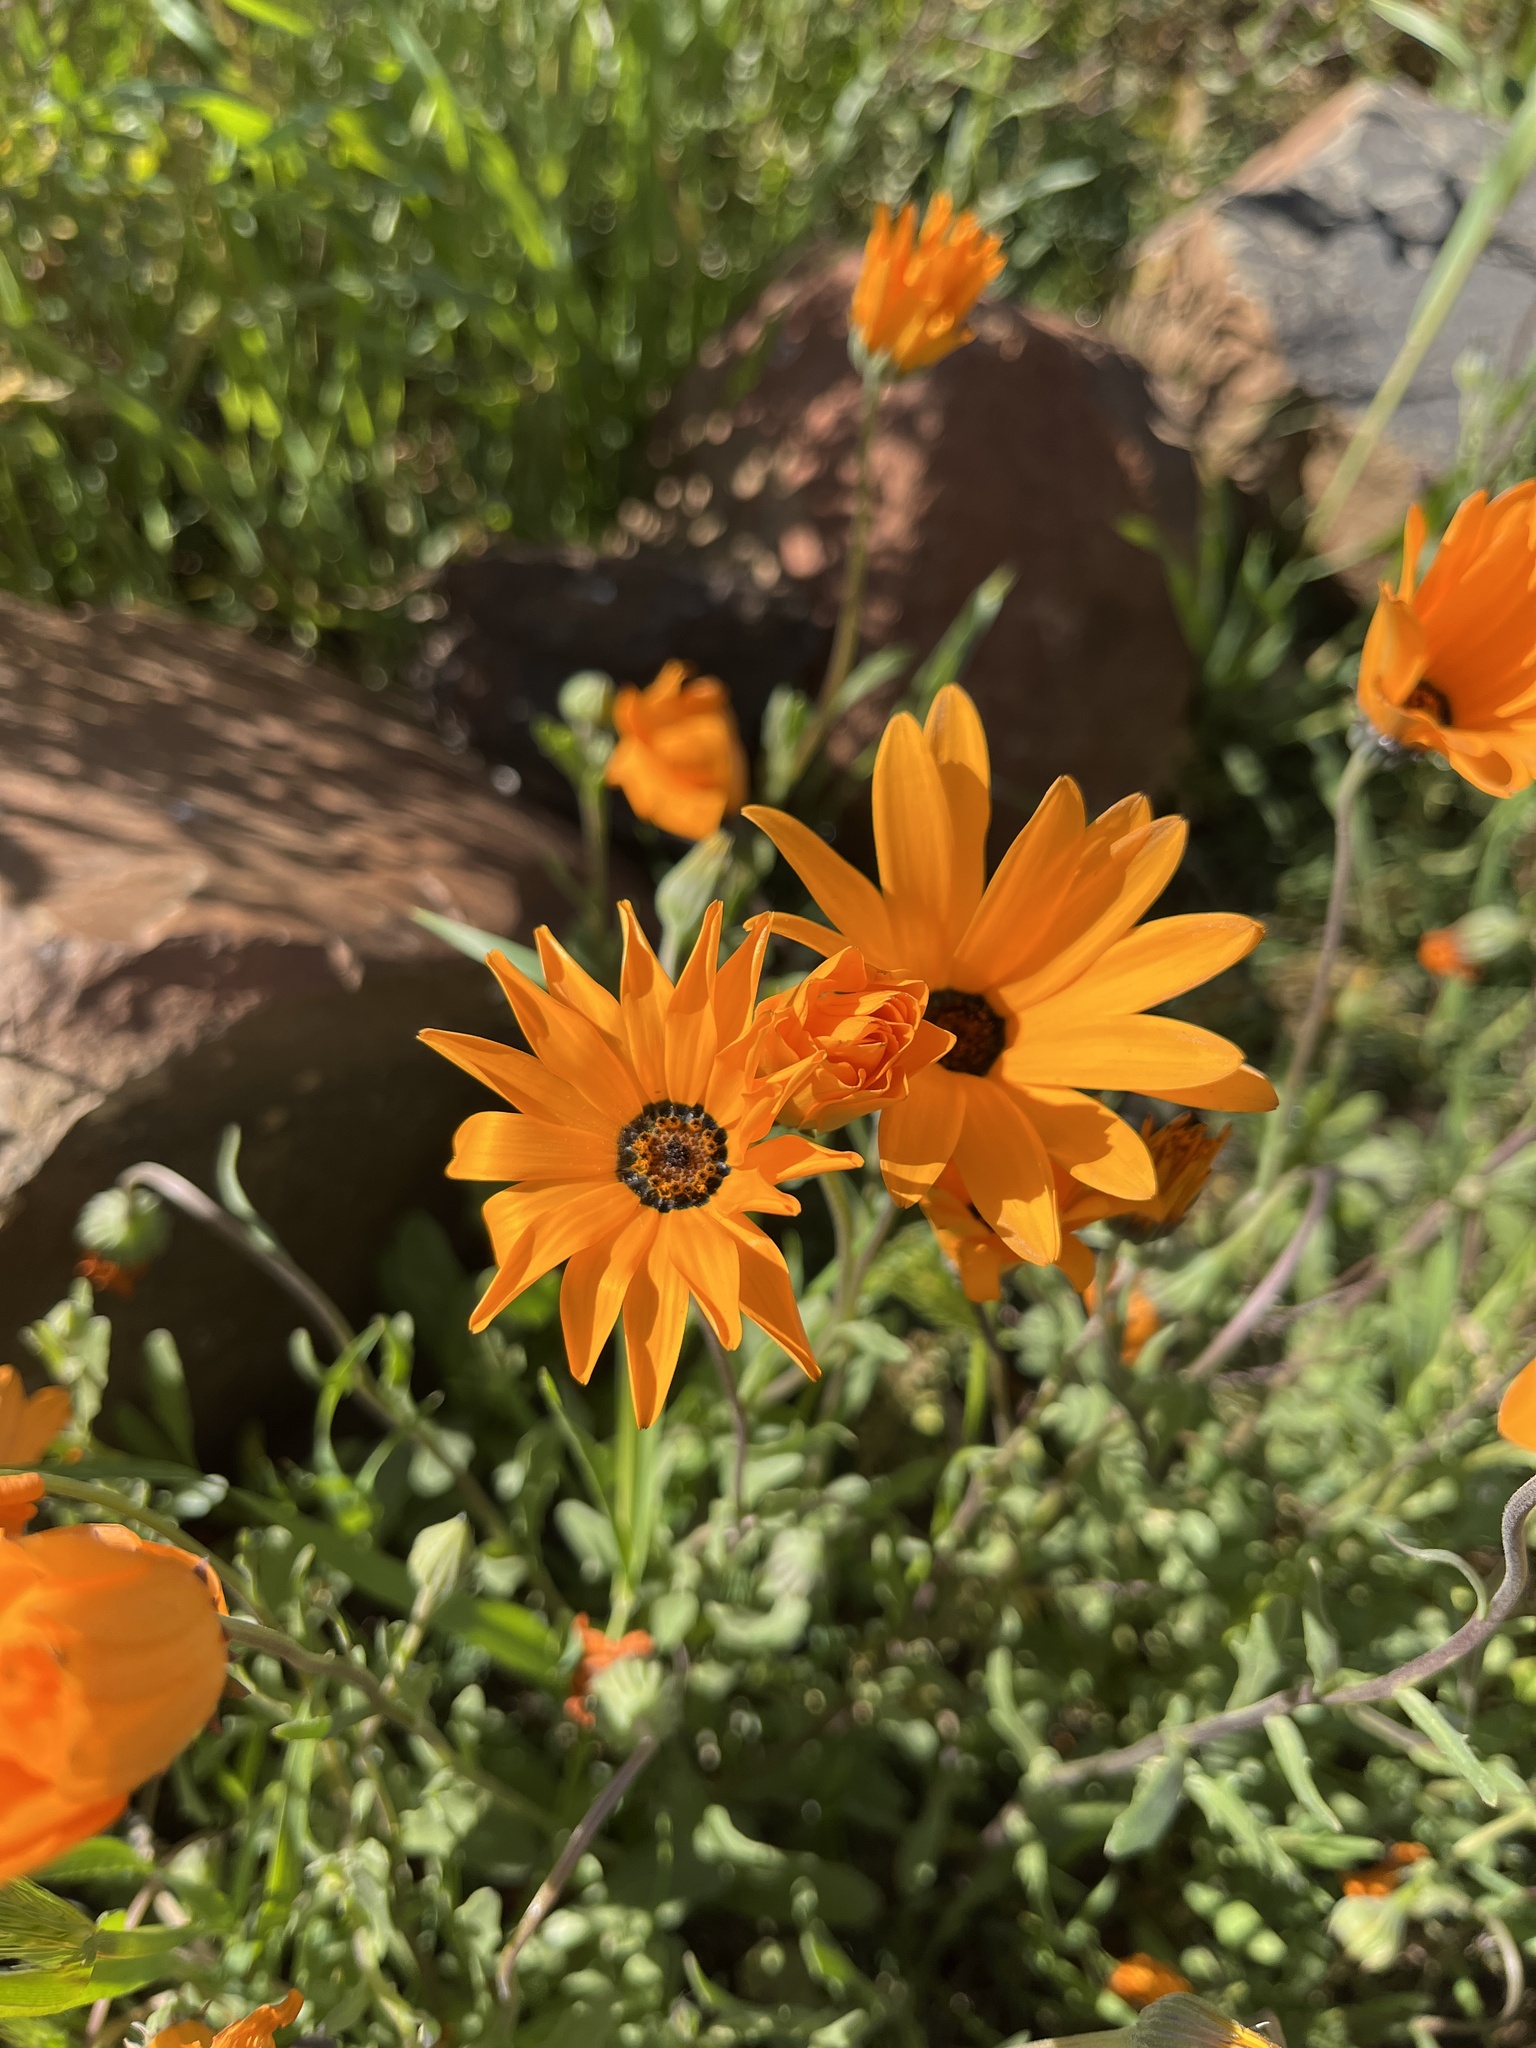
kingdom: Plantae
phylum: Tracheophyta
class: Magnoliopsida
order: Asterales
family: Asteraceae
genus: Dimorphotheca
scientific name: Dimorphotheca sinuata
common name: Glandular cape marigold
